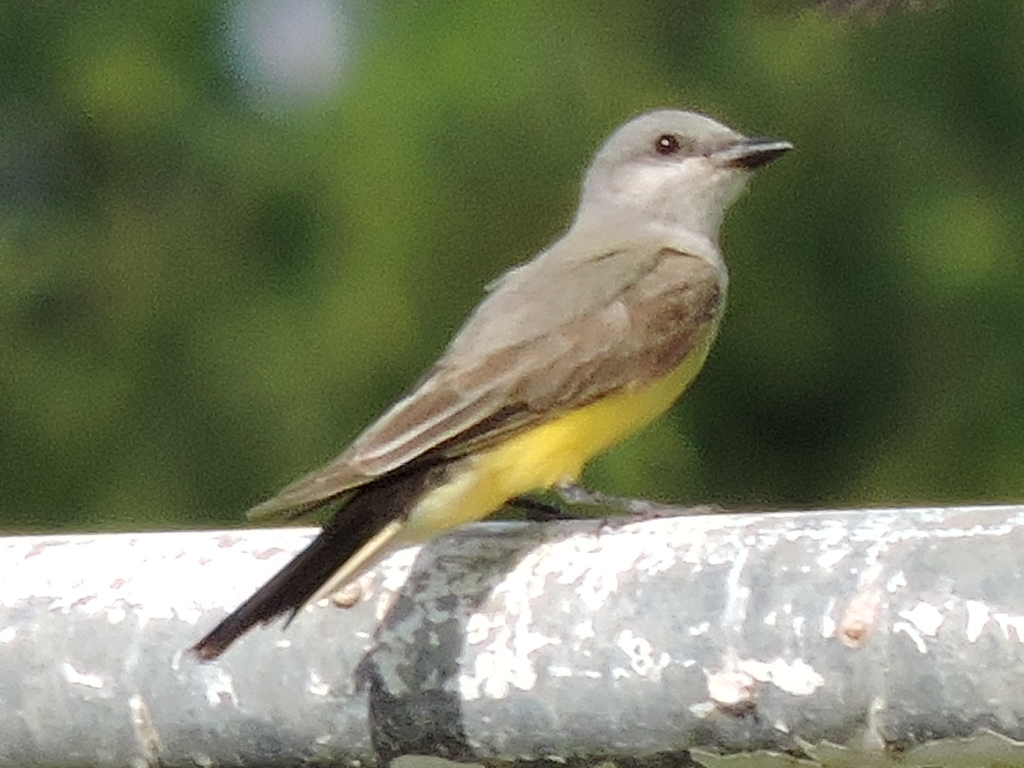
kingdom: Animalia
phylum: Chordata
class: Aves
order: Passeriformes
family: Tyrannidae
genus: Tyrannus
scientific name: Tyrannus verticalis
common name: Western kingbird
